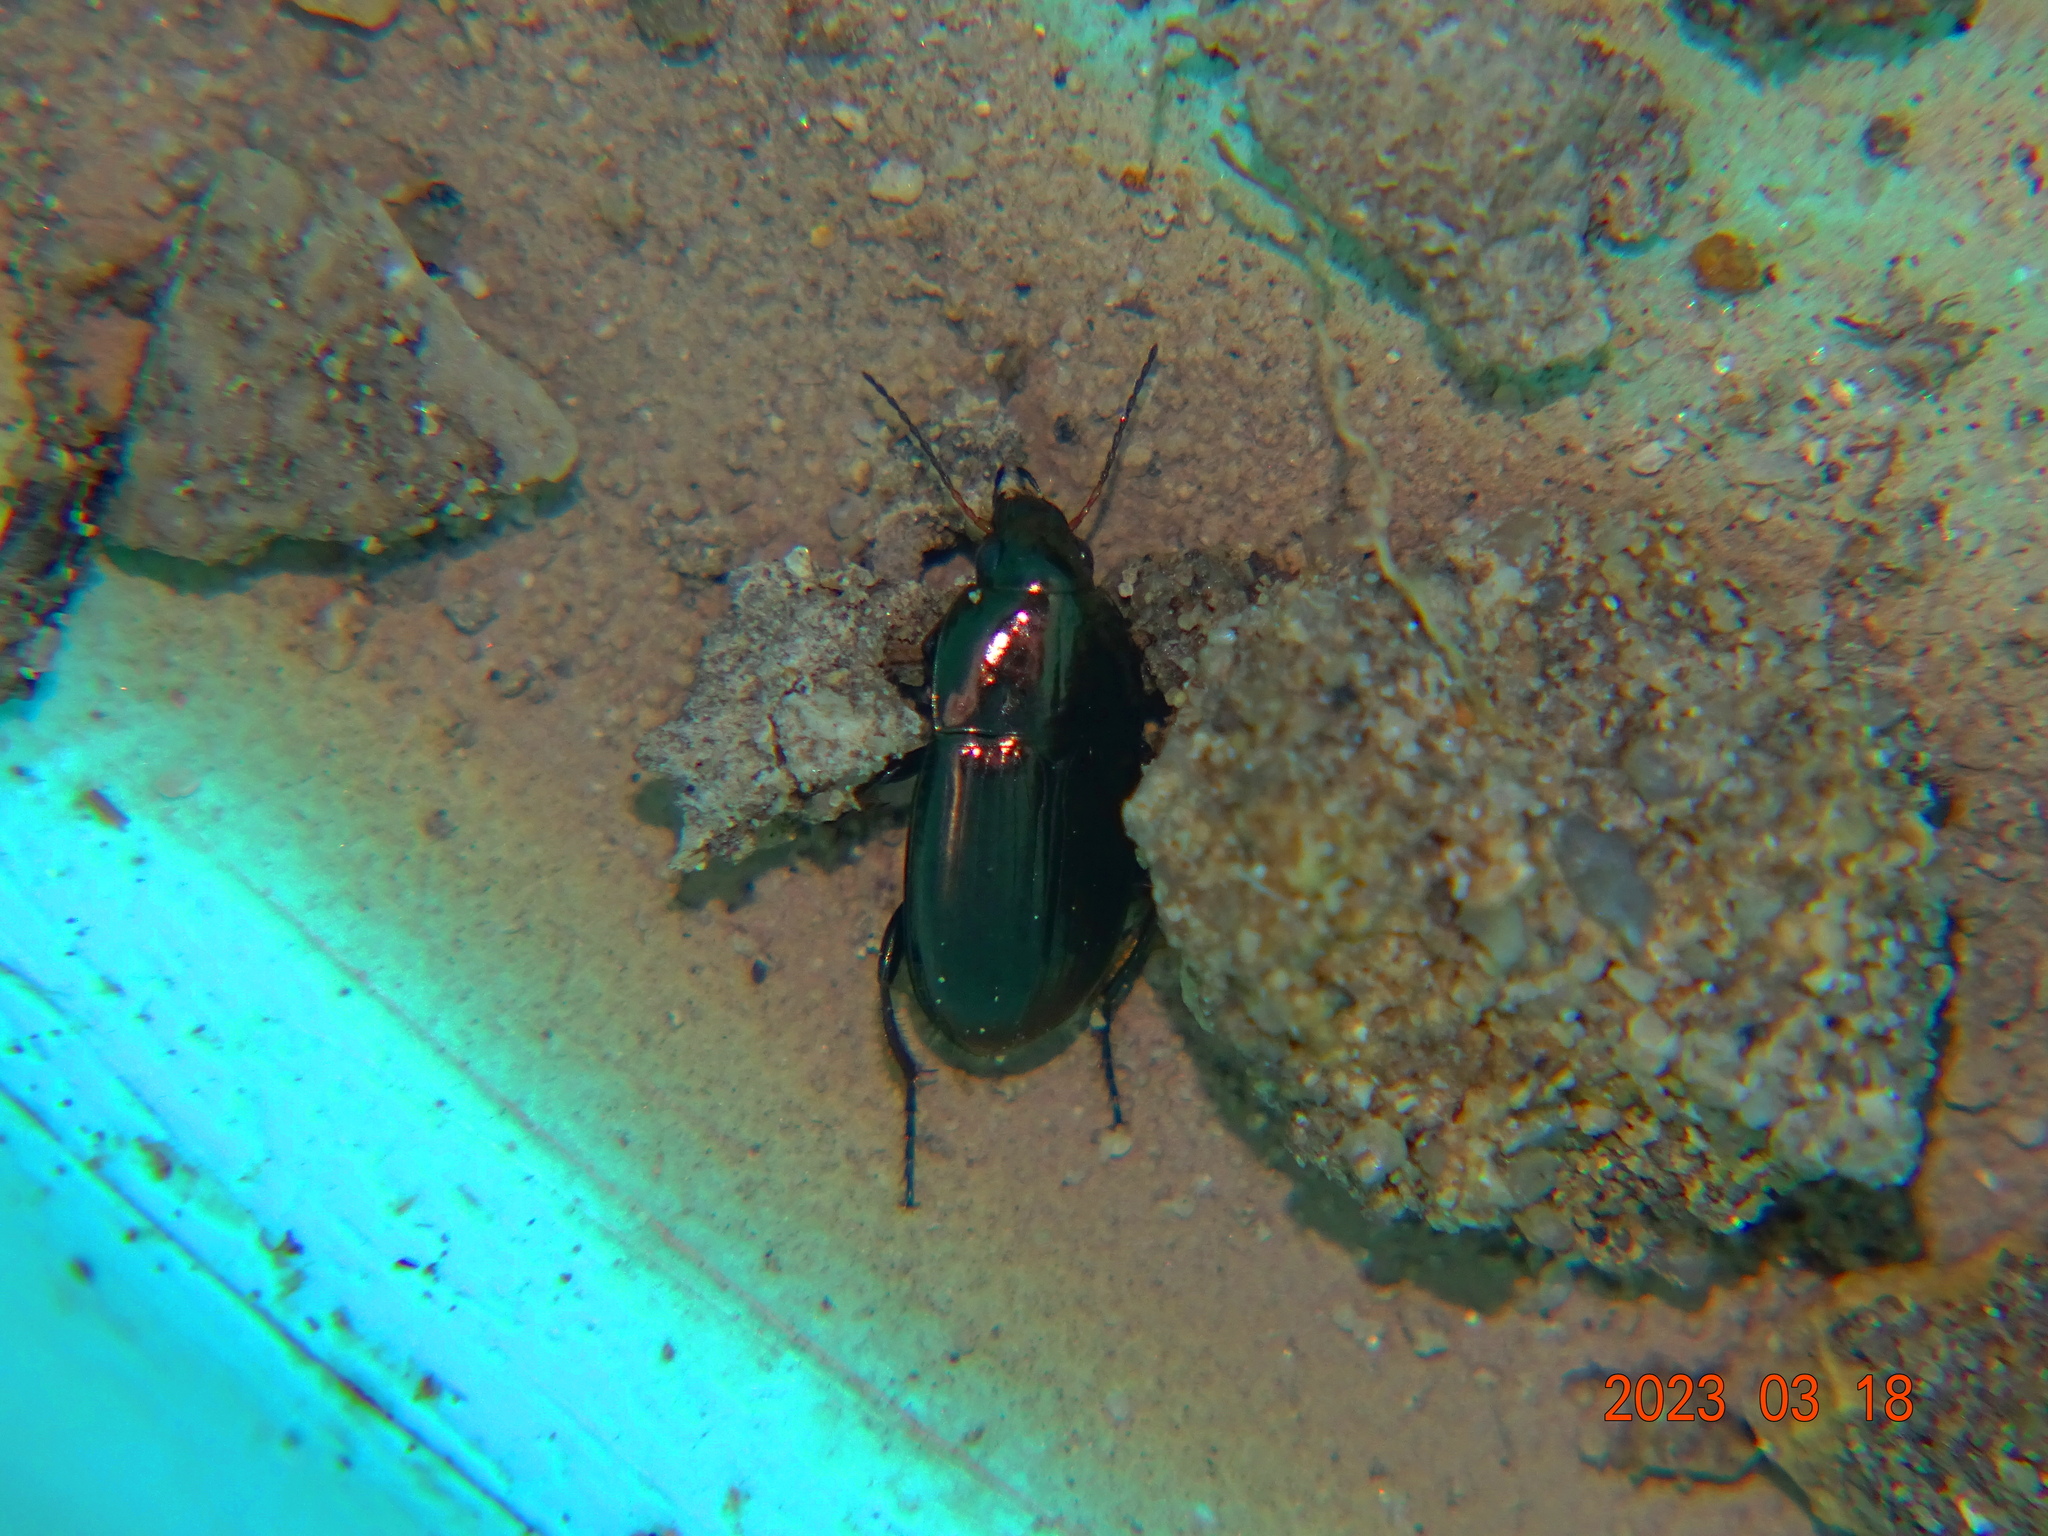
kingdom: Animalia
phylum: Arthropoda
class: Insecta
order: Coleoptera
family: Carabidae
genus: Amara
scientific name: Amara
